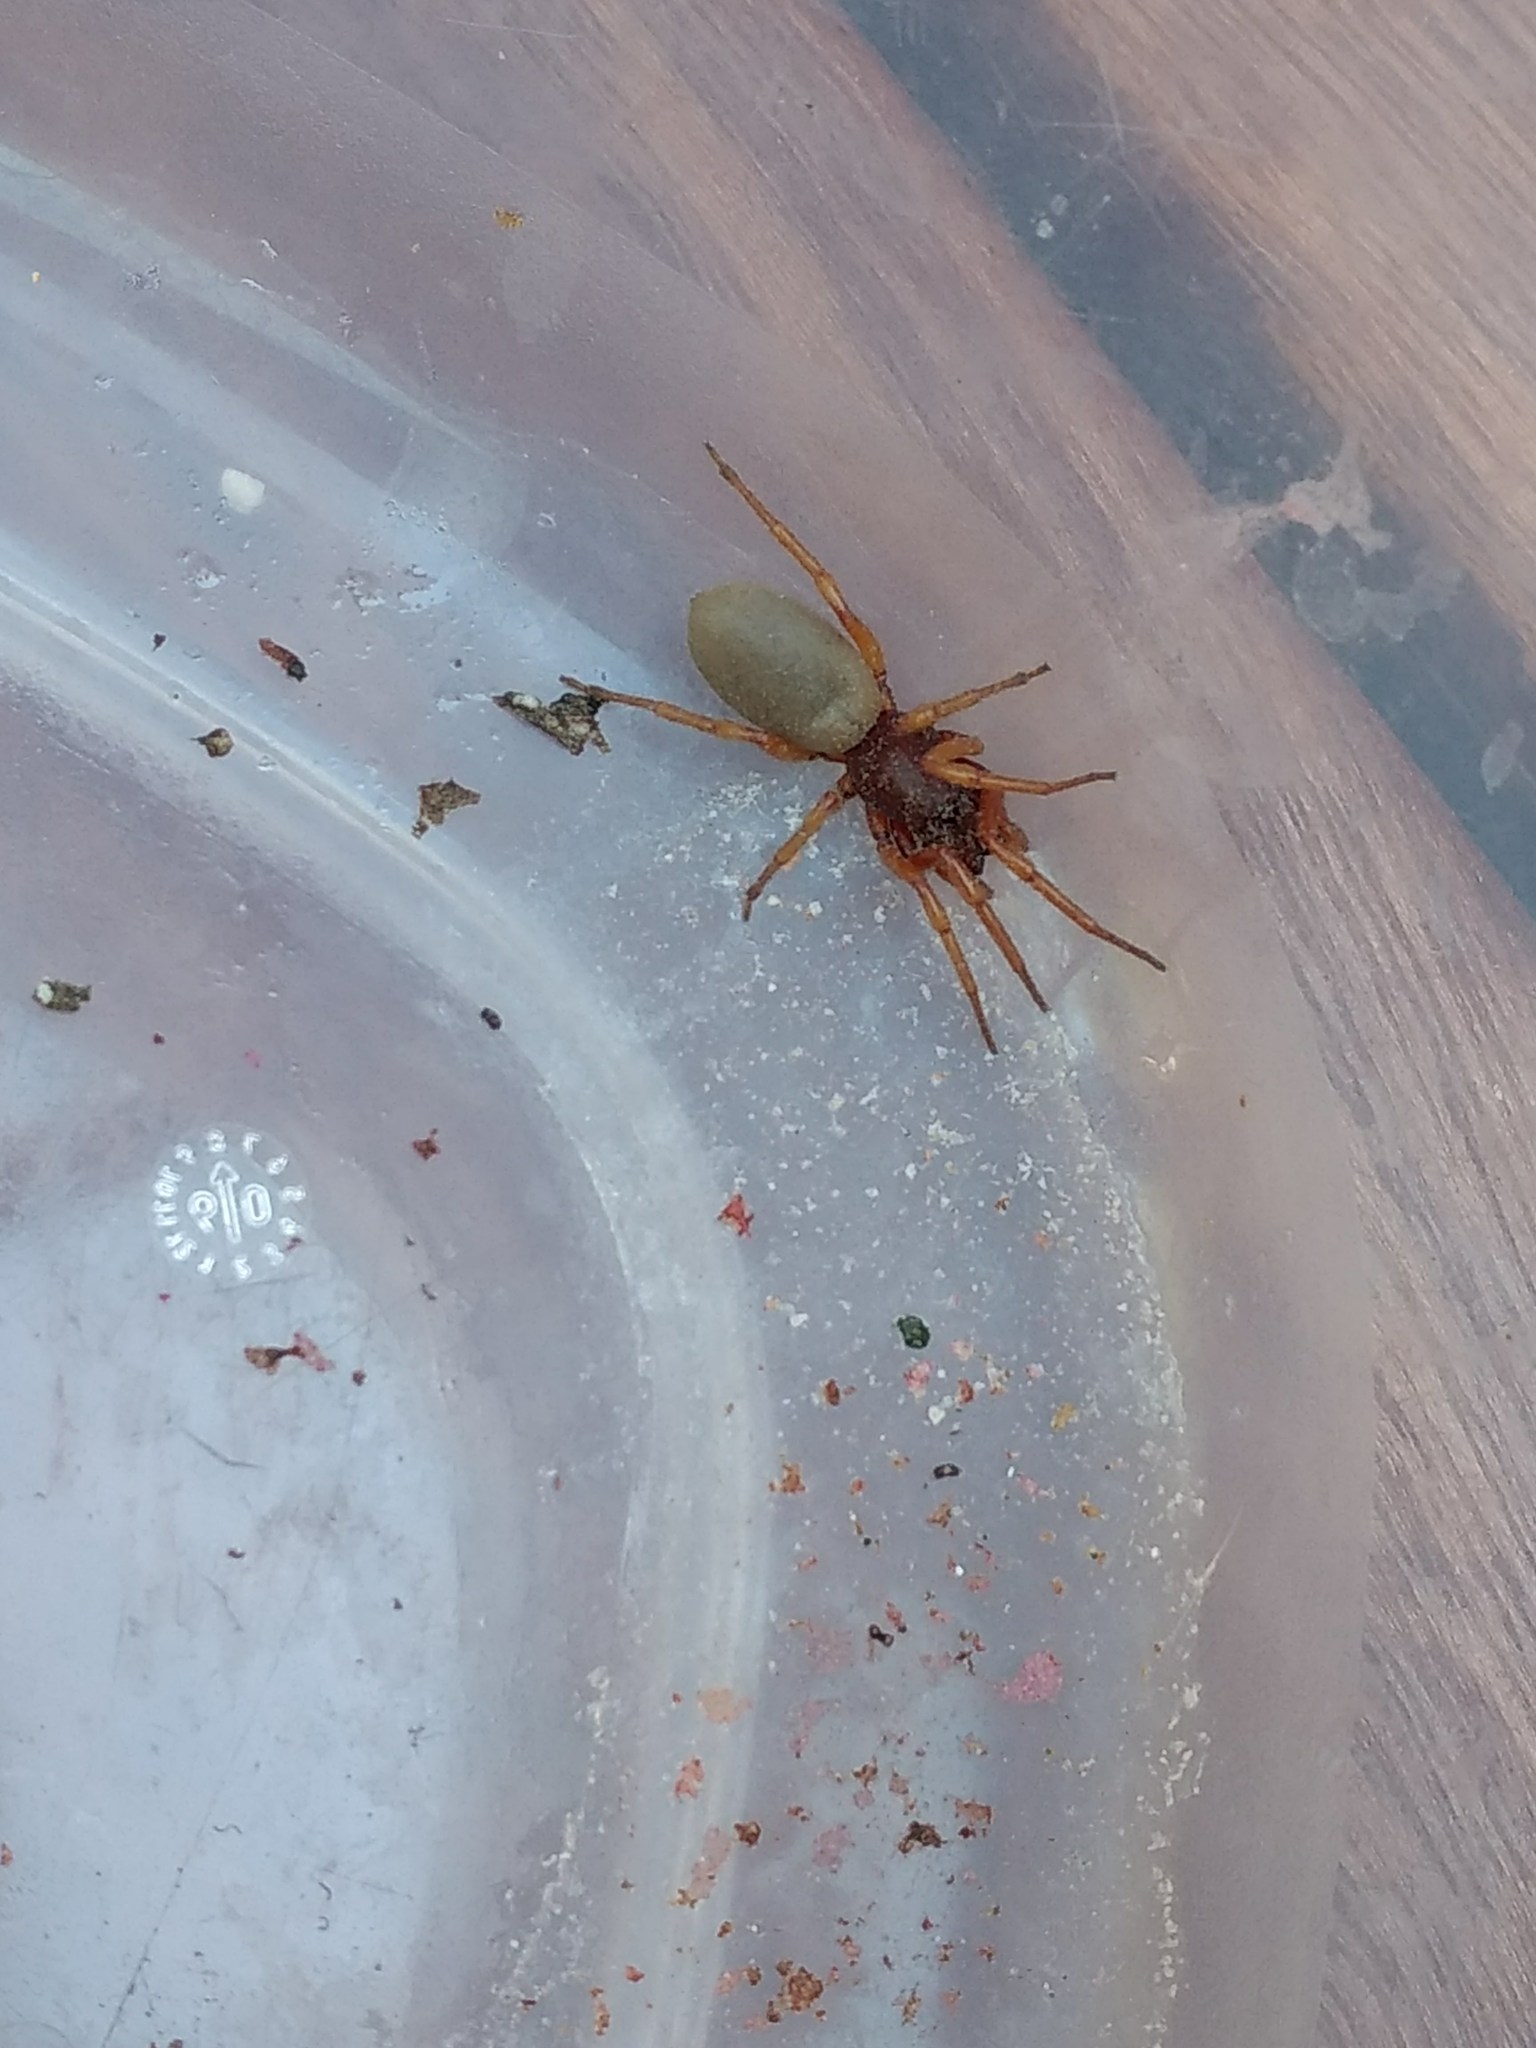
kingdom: Animalia
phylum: Arthropoda
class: Arachnida
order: Araneae
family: Dysderidae
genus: Dysdera
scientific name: Dysdera crocata
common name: Woodlouse spider
